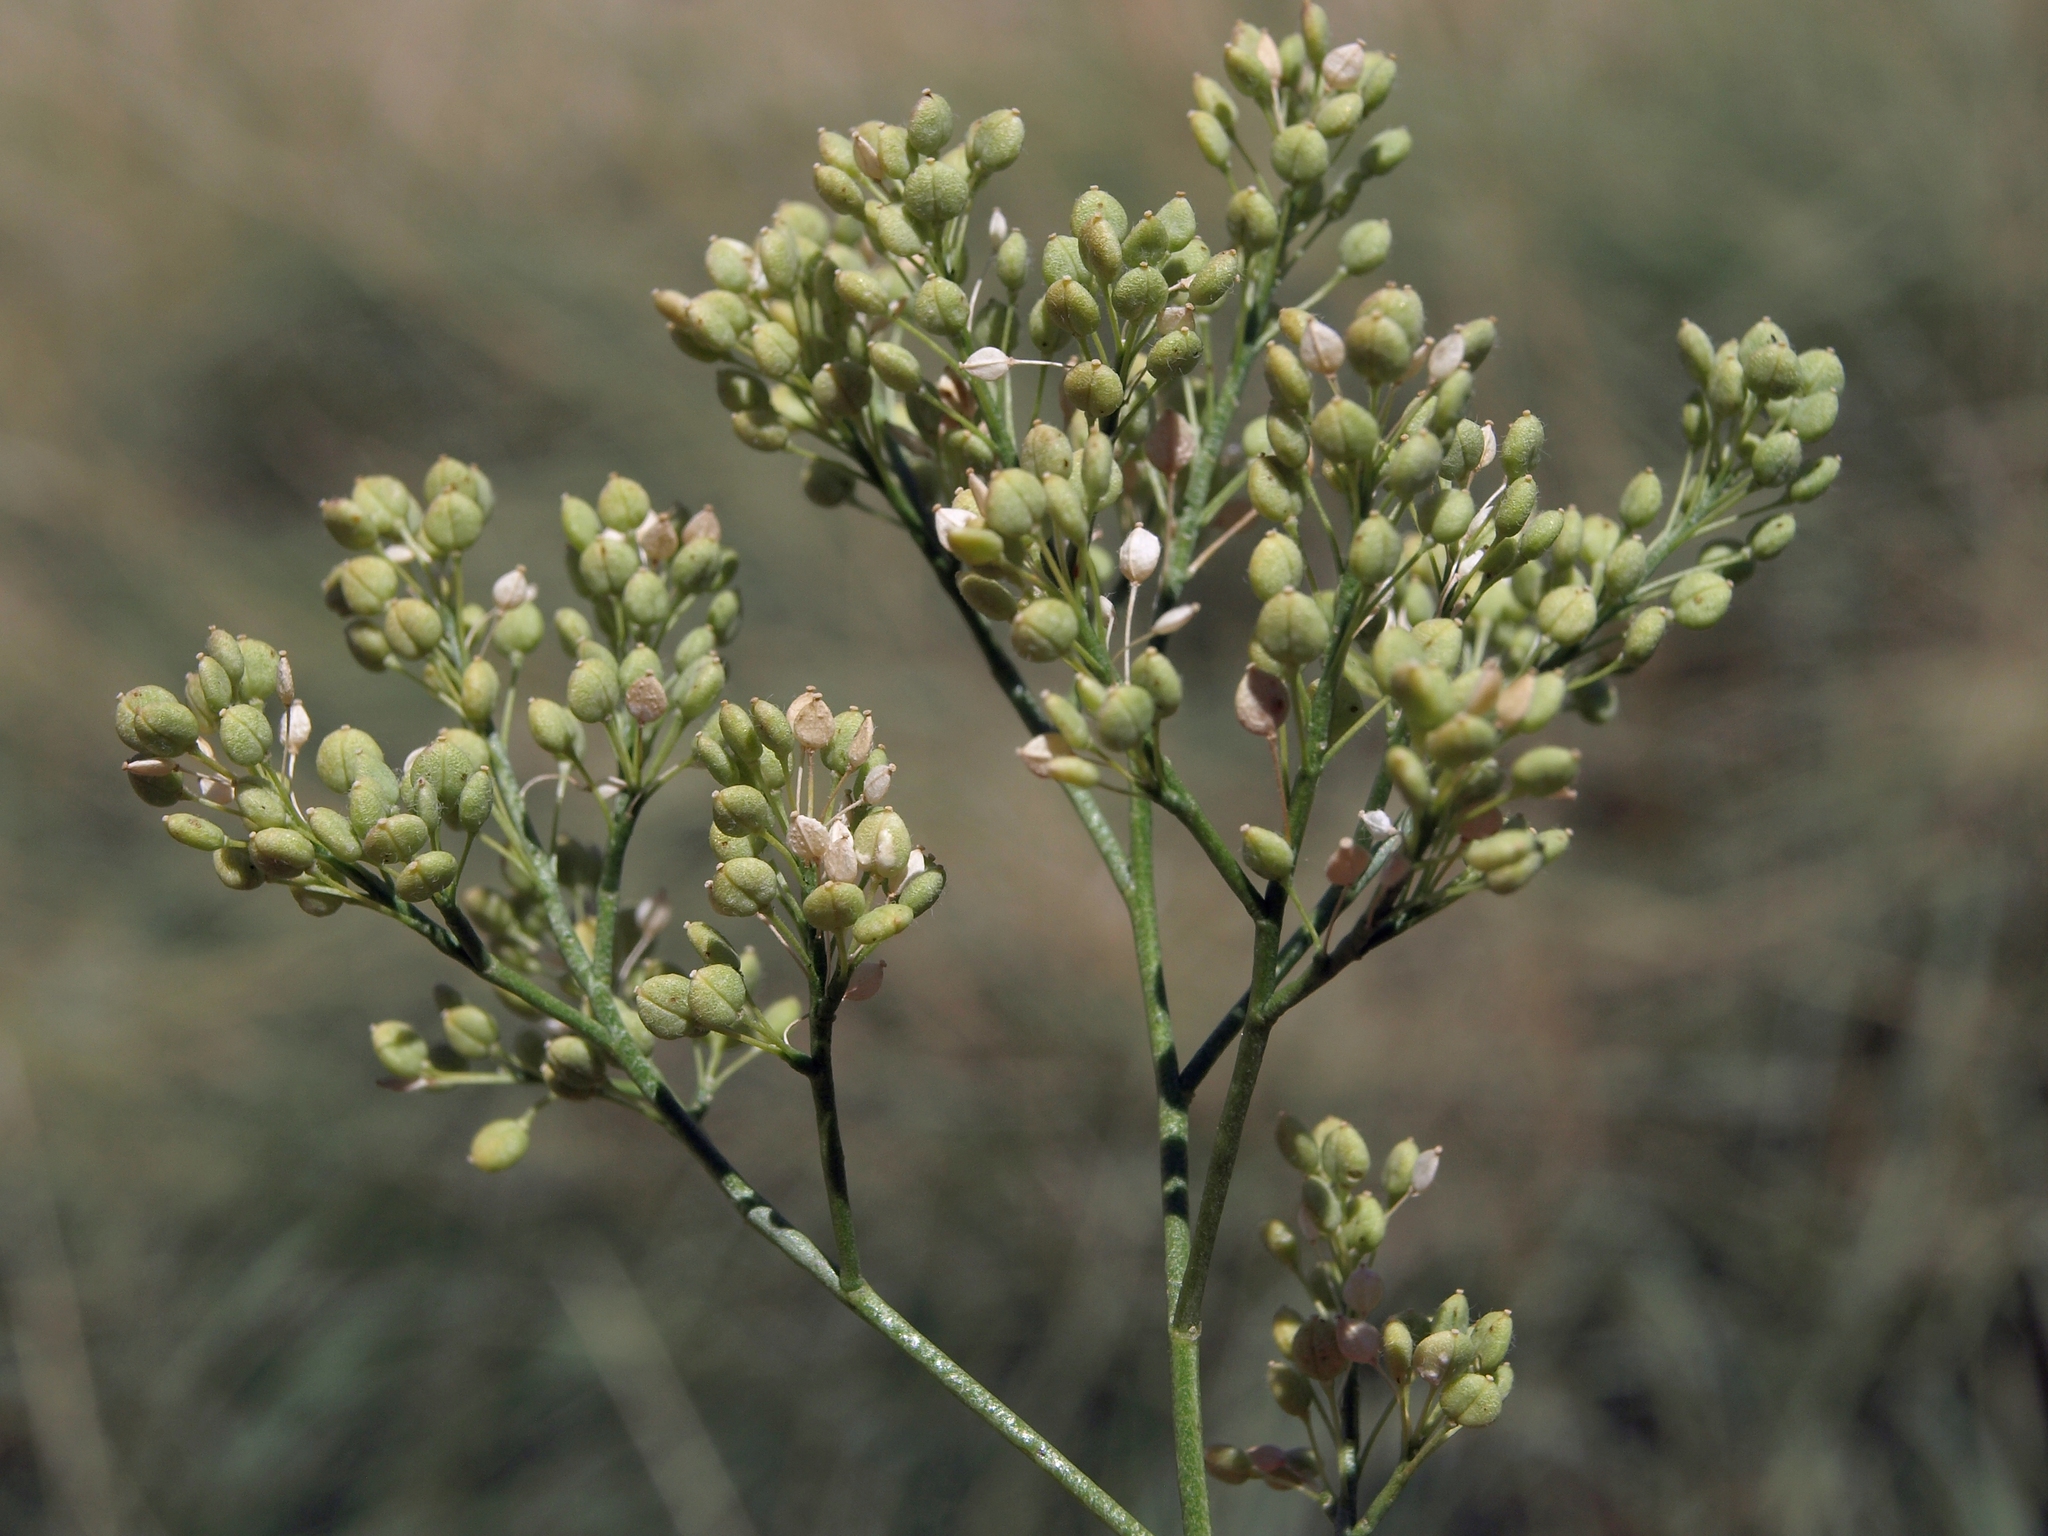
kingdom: Plantae
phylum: Tracheophyta
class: Magnoliopsida
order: Brassicales
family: Brassicaceae
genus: Lepidium
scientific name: Lepidium latifolium
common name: Dittander
